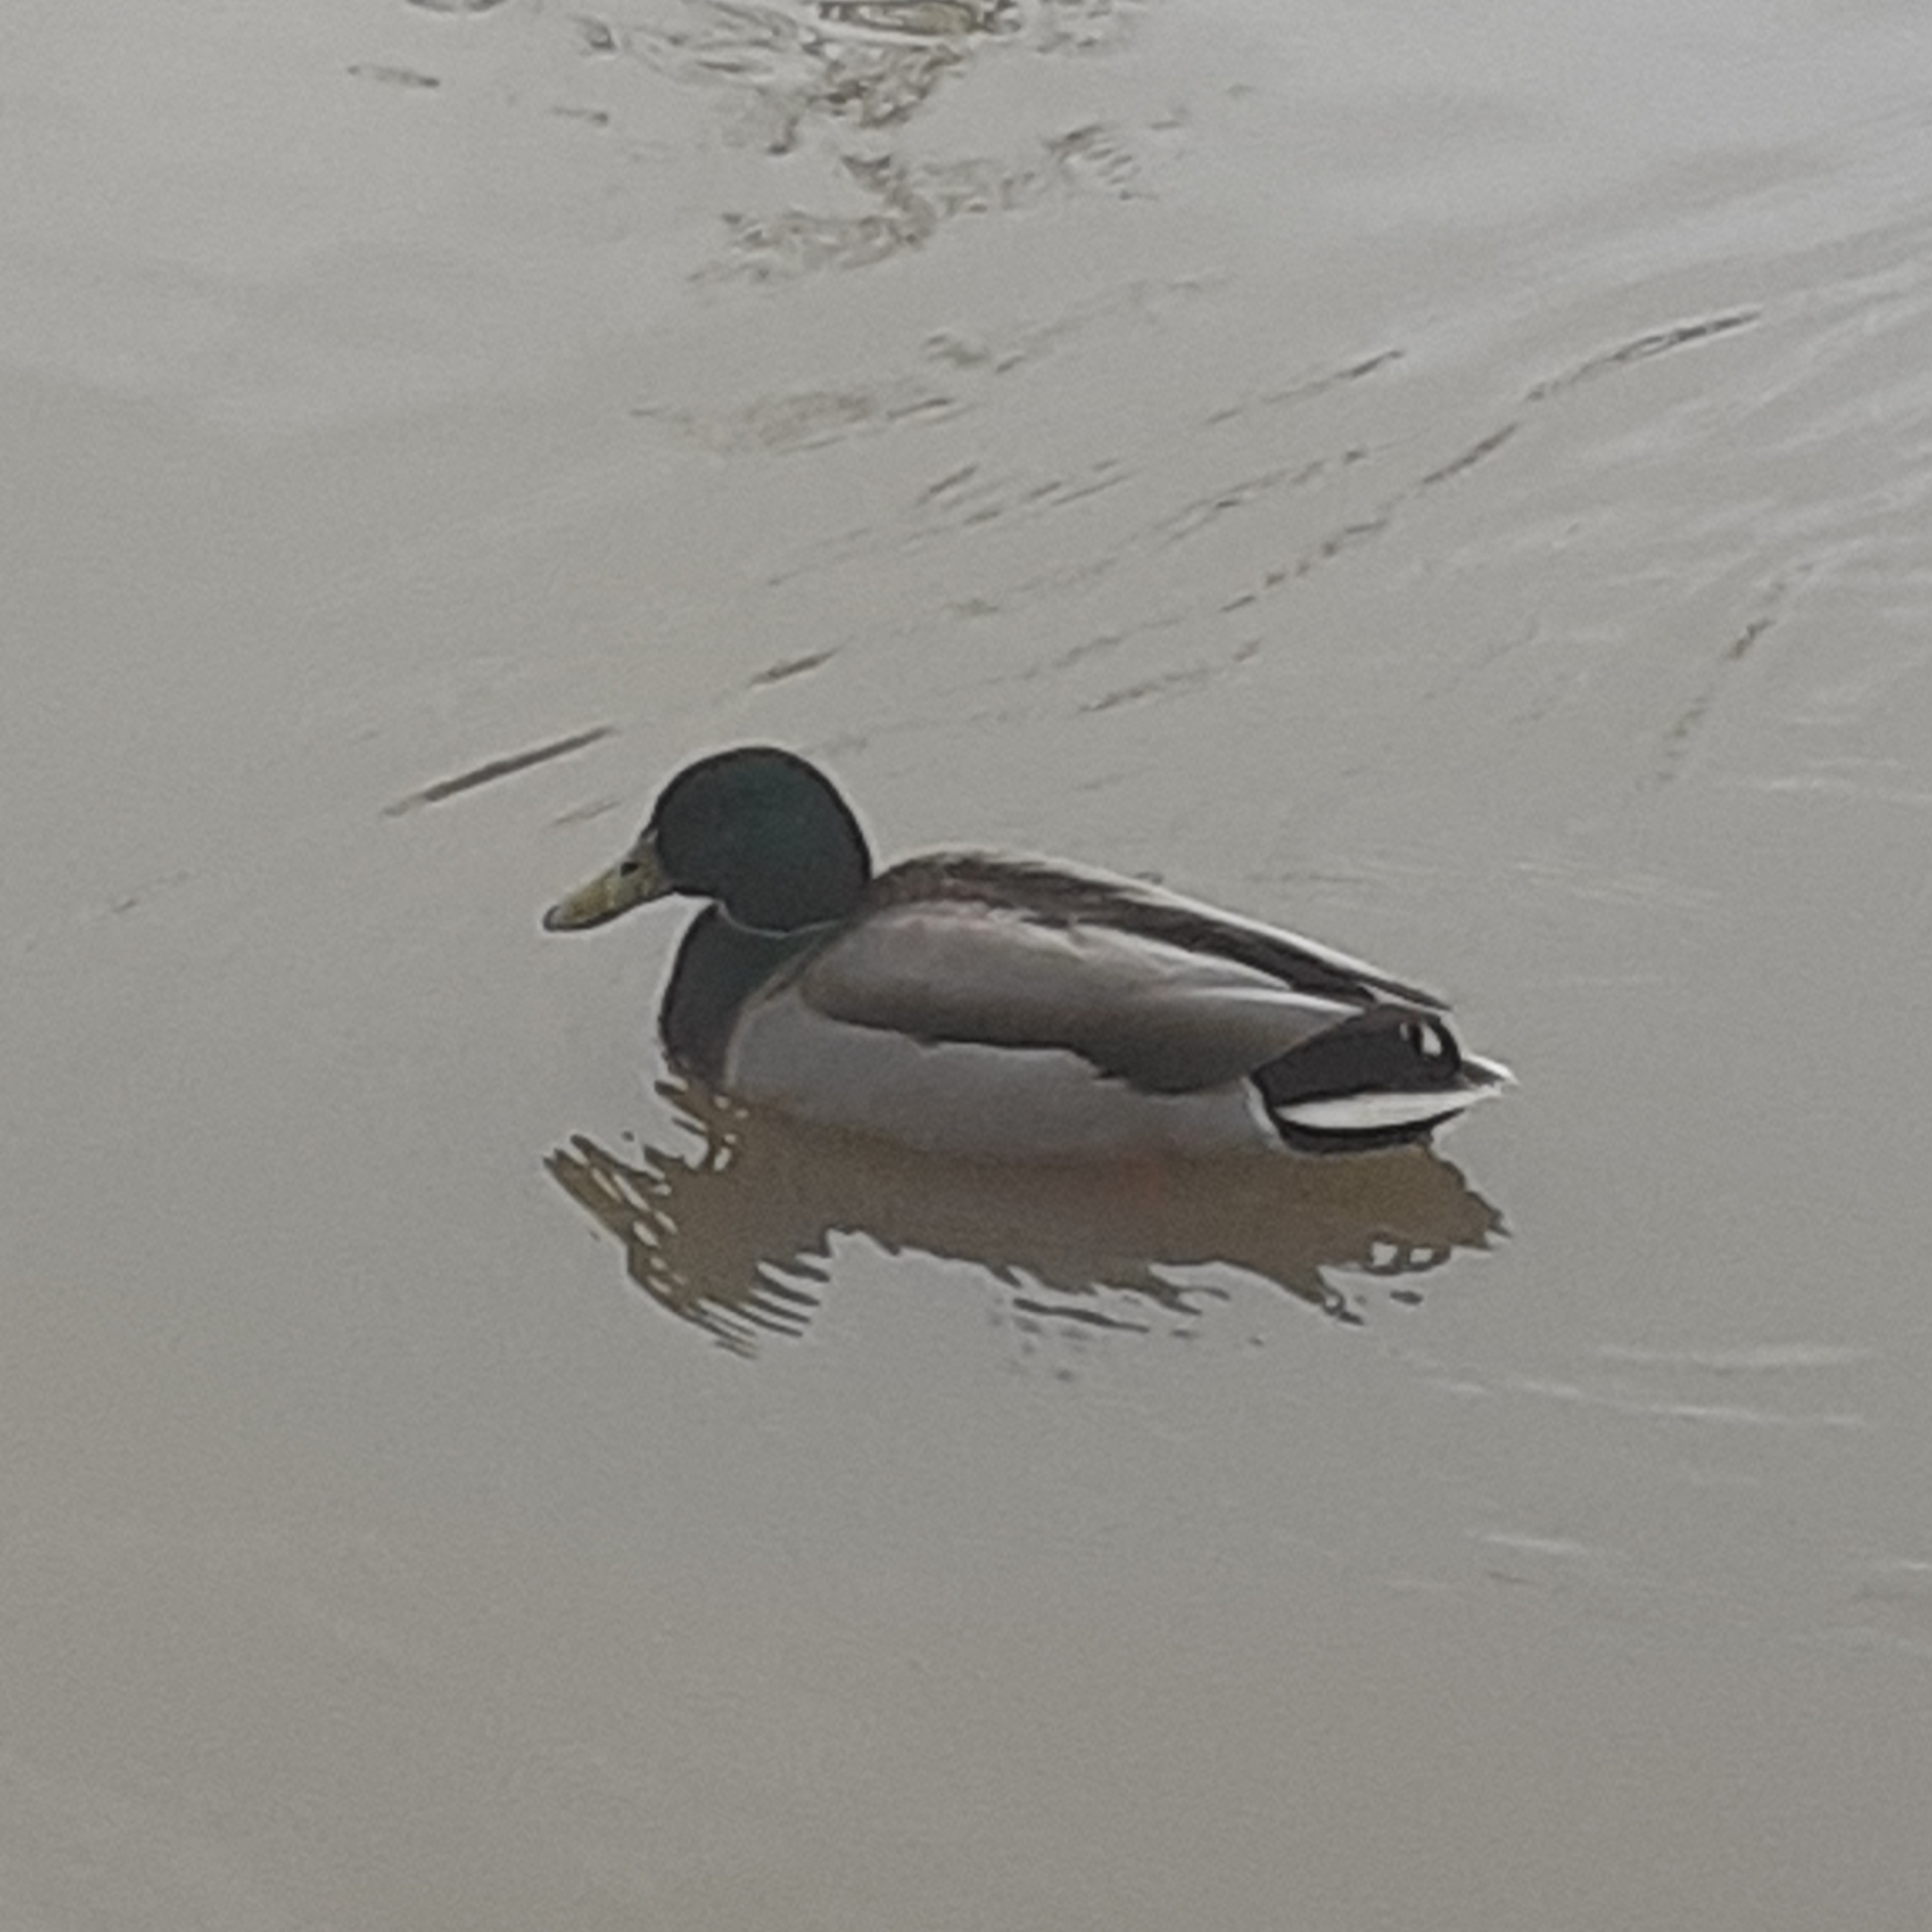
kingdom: Animalia
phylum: Chordata
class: Aves
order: Anseriformes
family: Anatidae
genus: Anas
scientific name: Anas platyrhynchos
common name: Mallard
